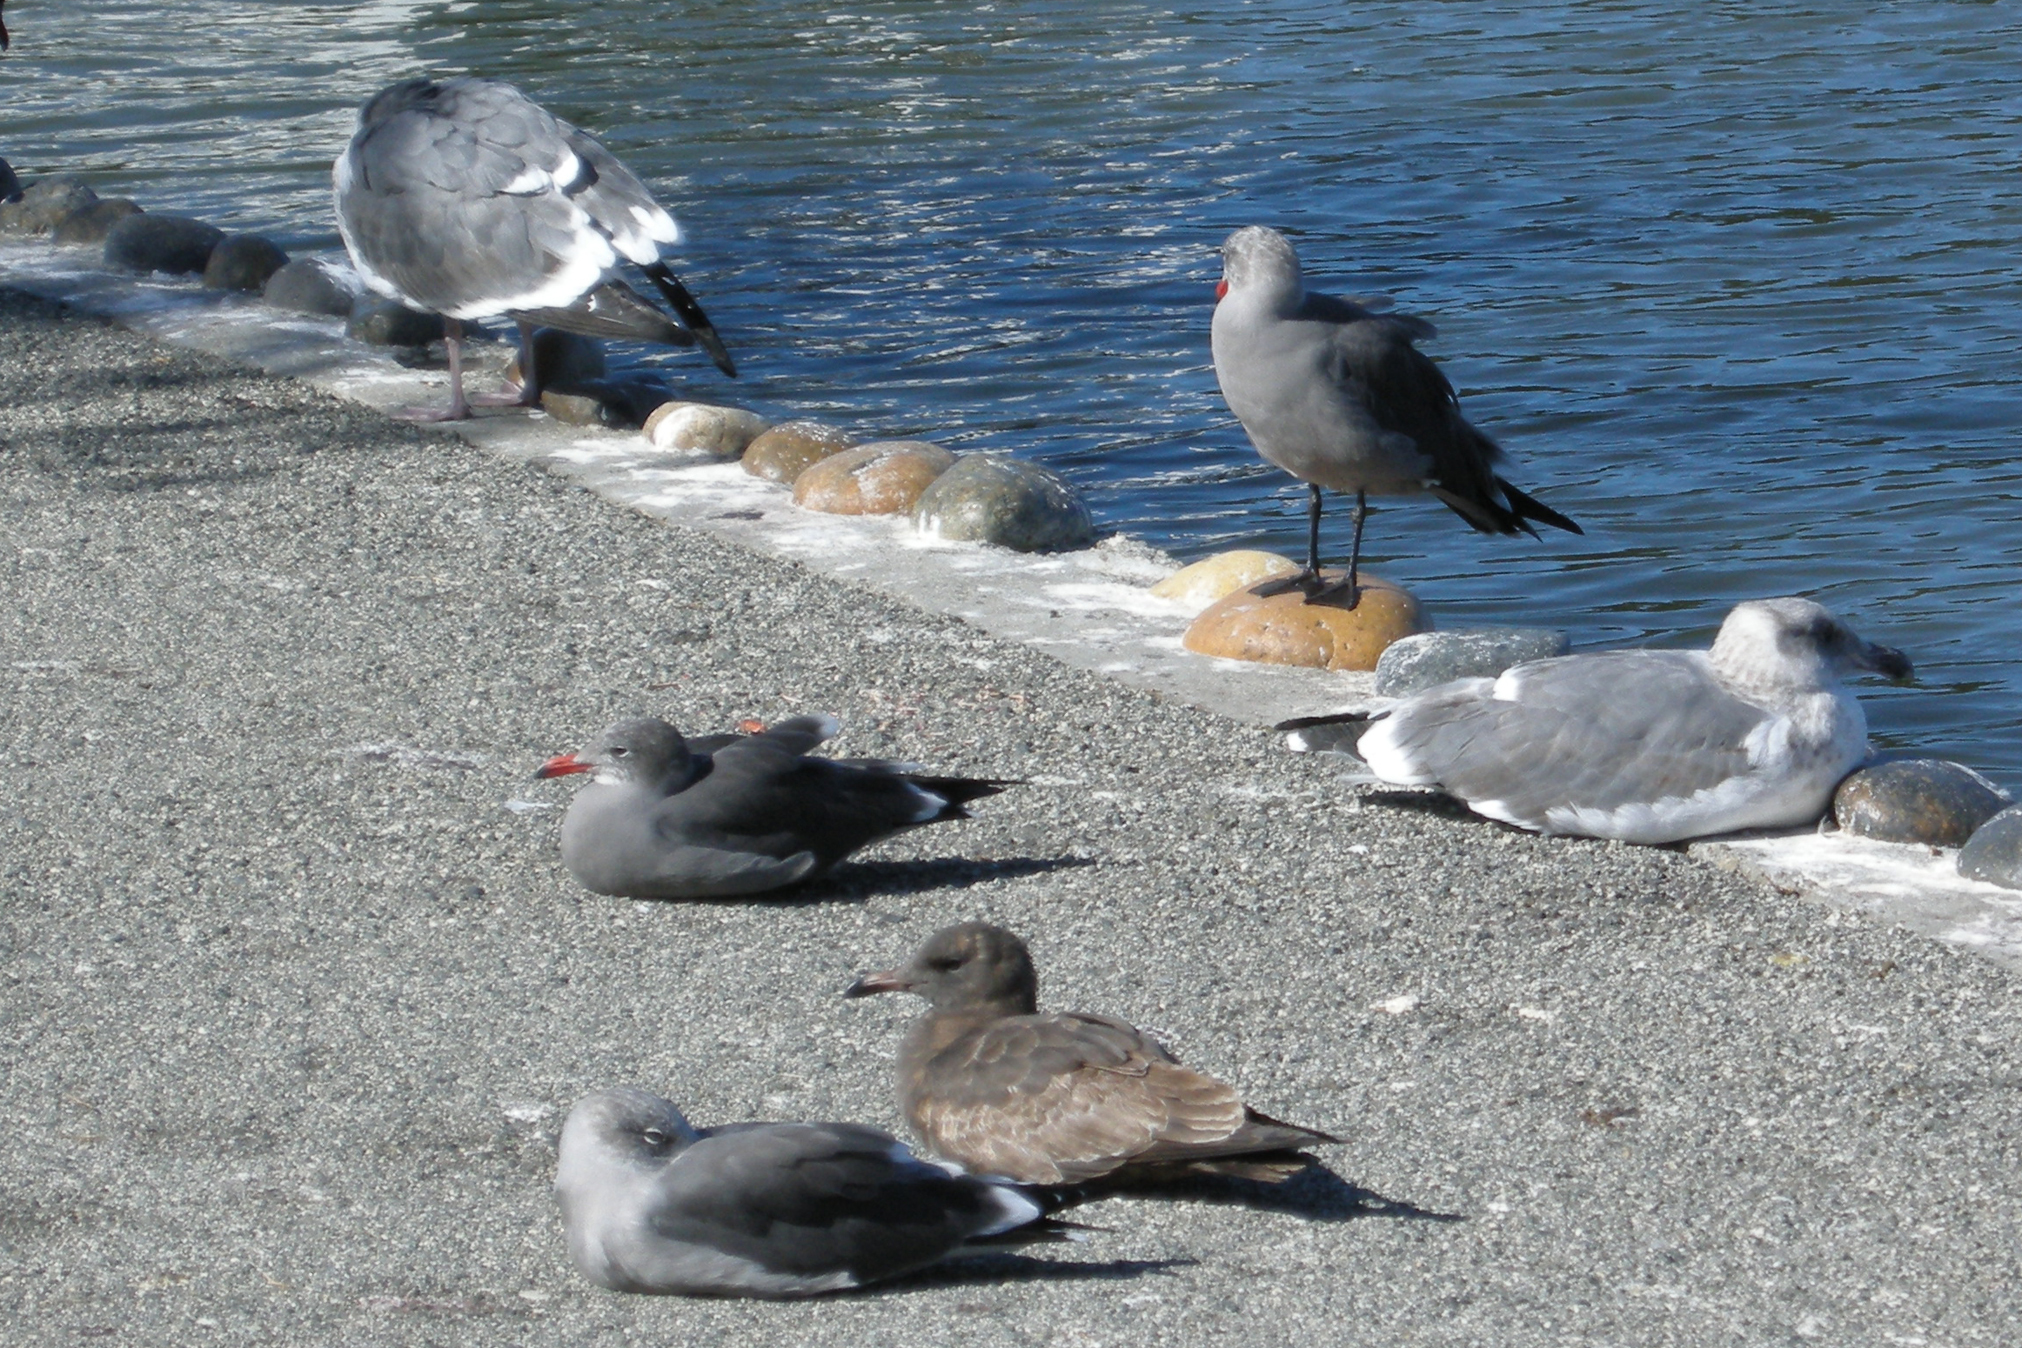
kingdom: Animalia
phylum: Chordata
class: Aves
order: Charadriiformes
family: Laridae
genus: Larus
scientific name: Larus heermanni
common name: Heermann's gull
